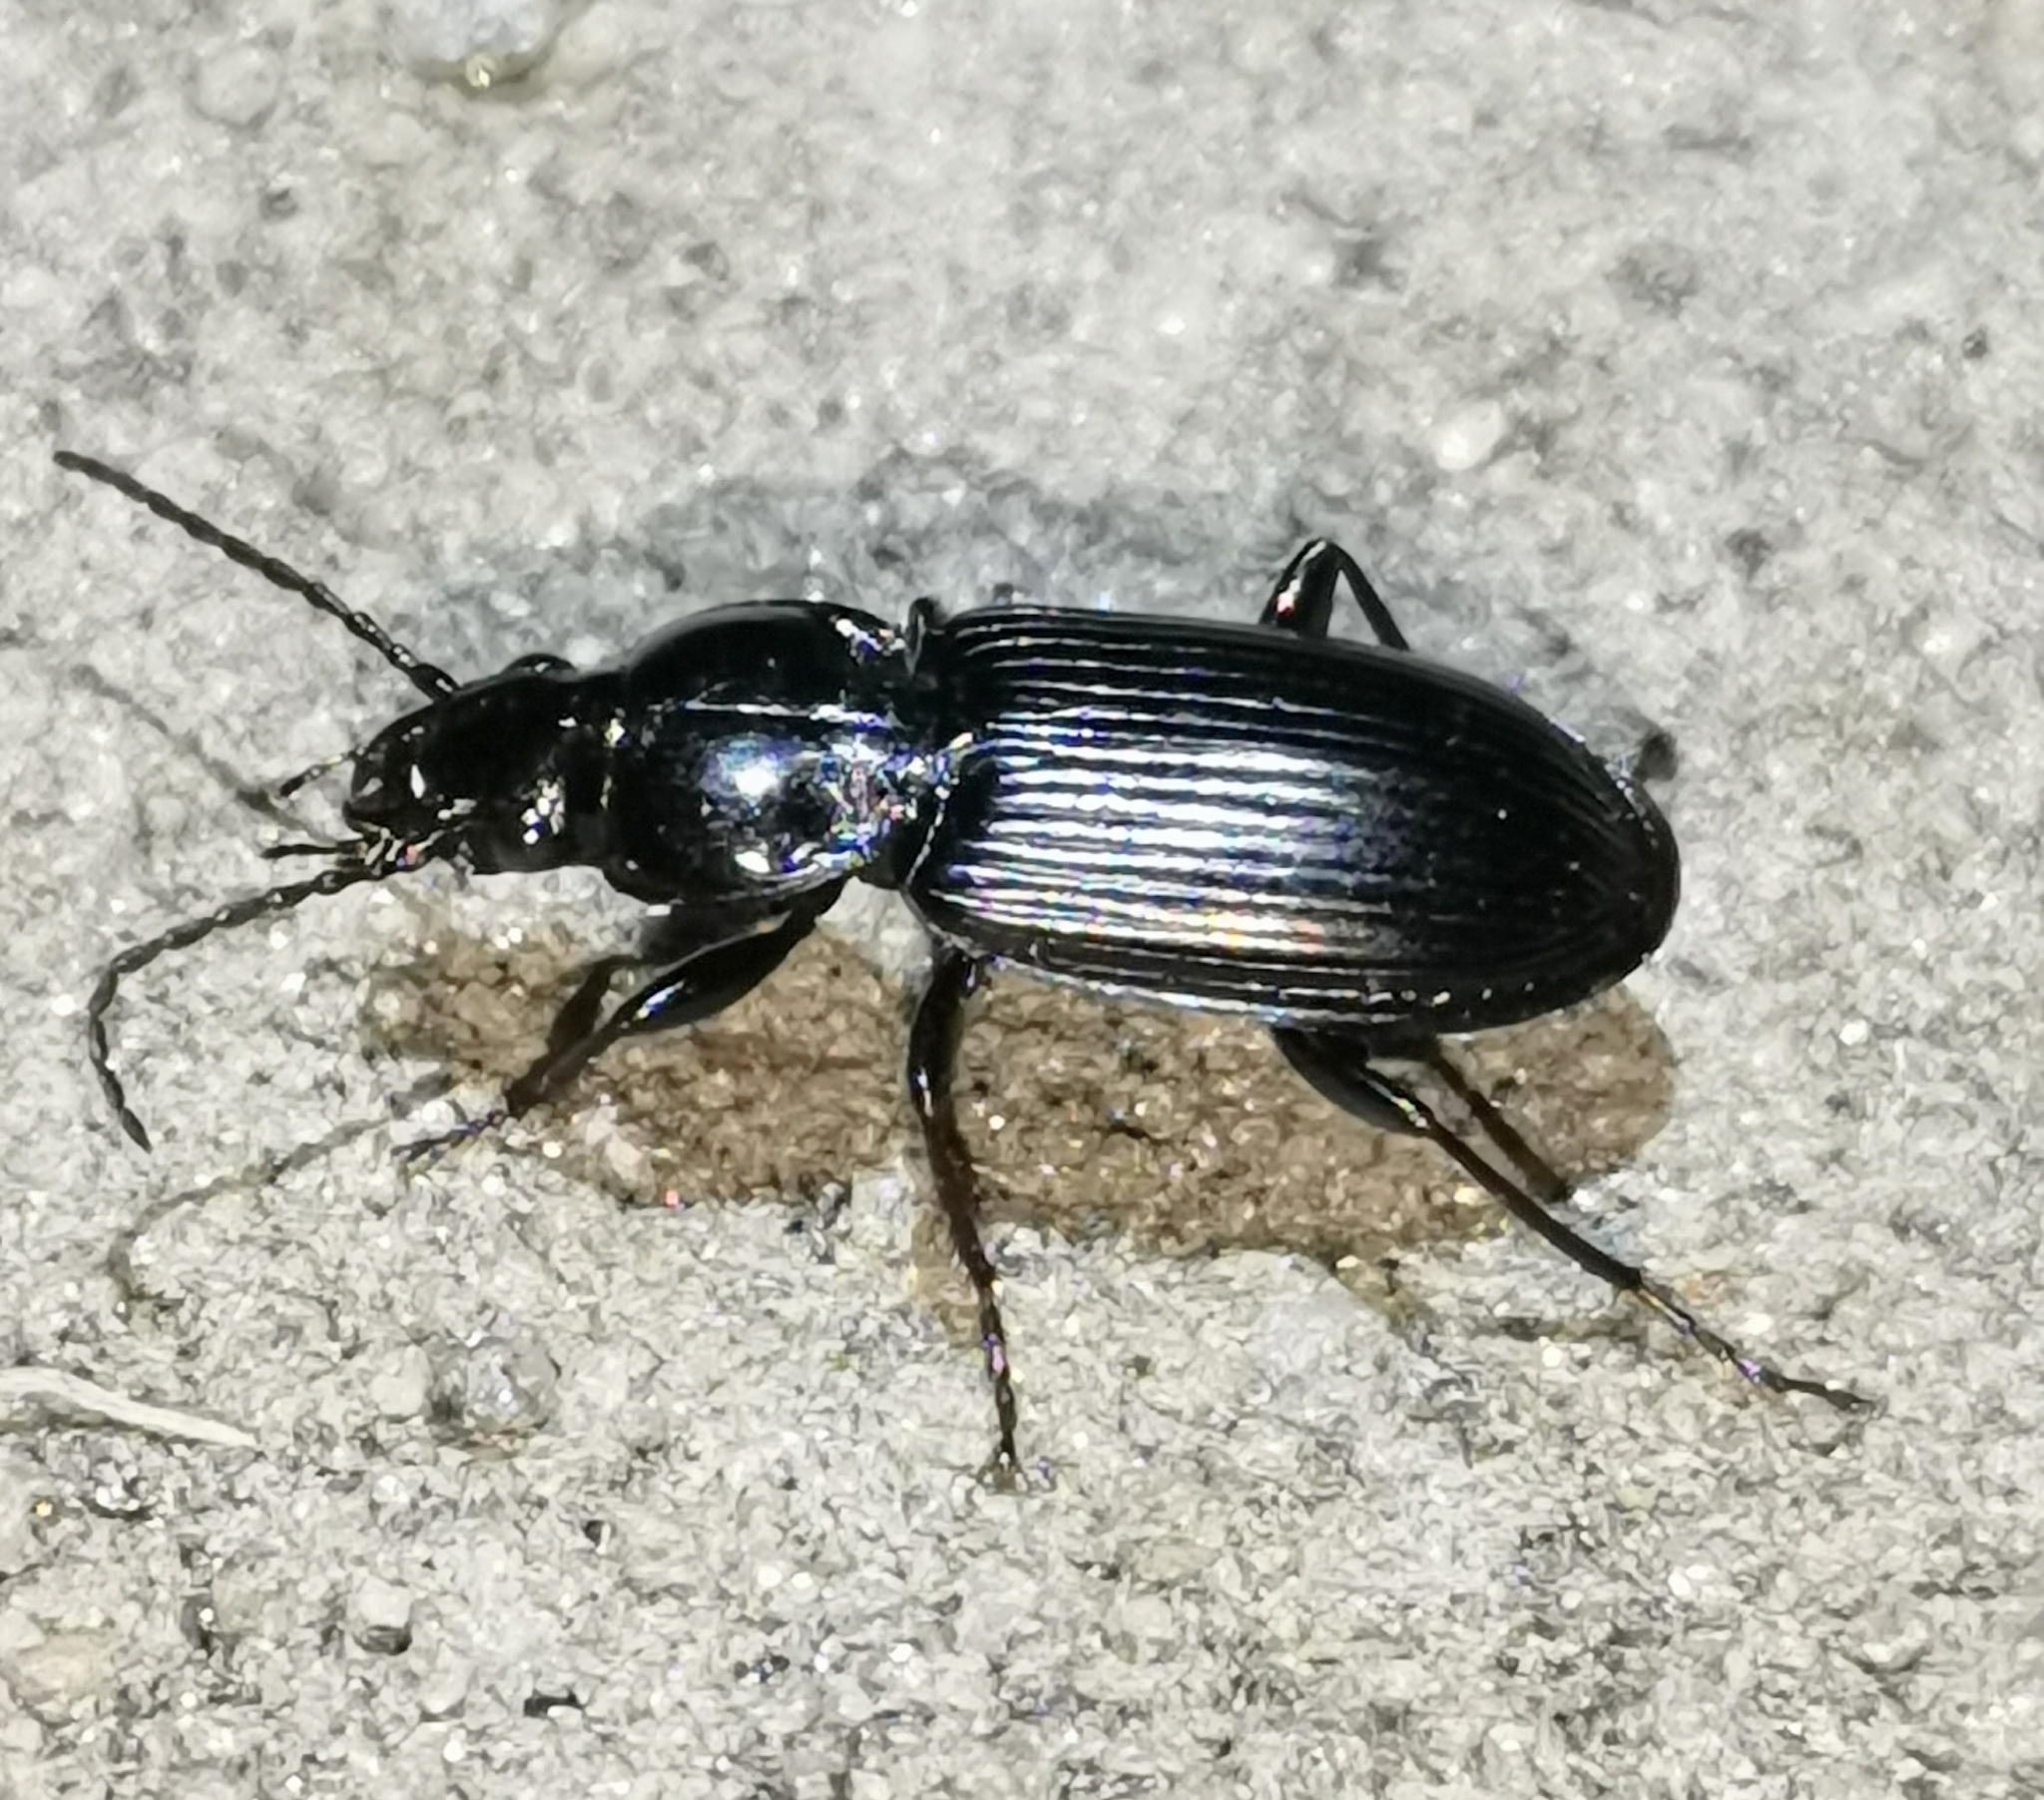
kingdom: Animalia
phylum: Arthropoda
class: Insecta
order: Coleoptera
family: Carabidae
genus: Pterostichus
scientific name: Pterostichus niger
